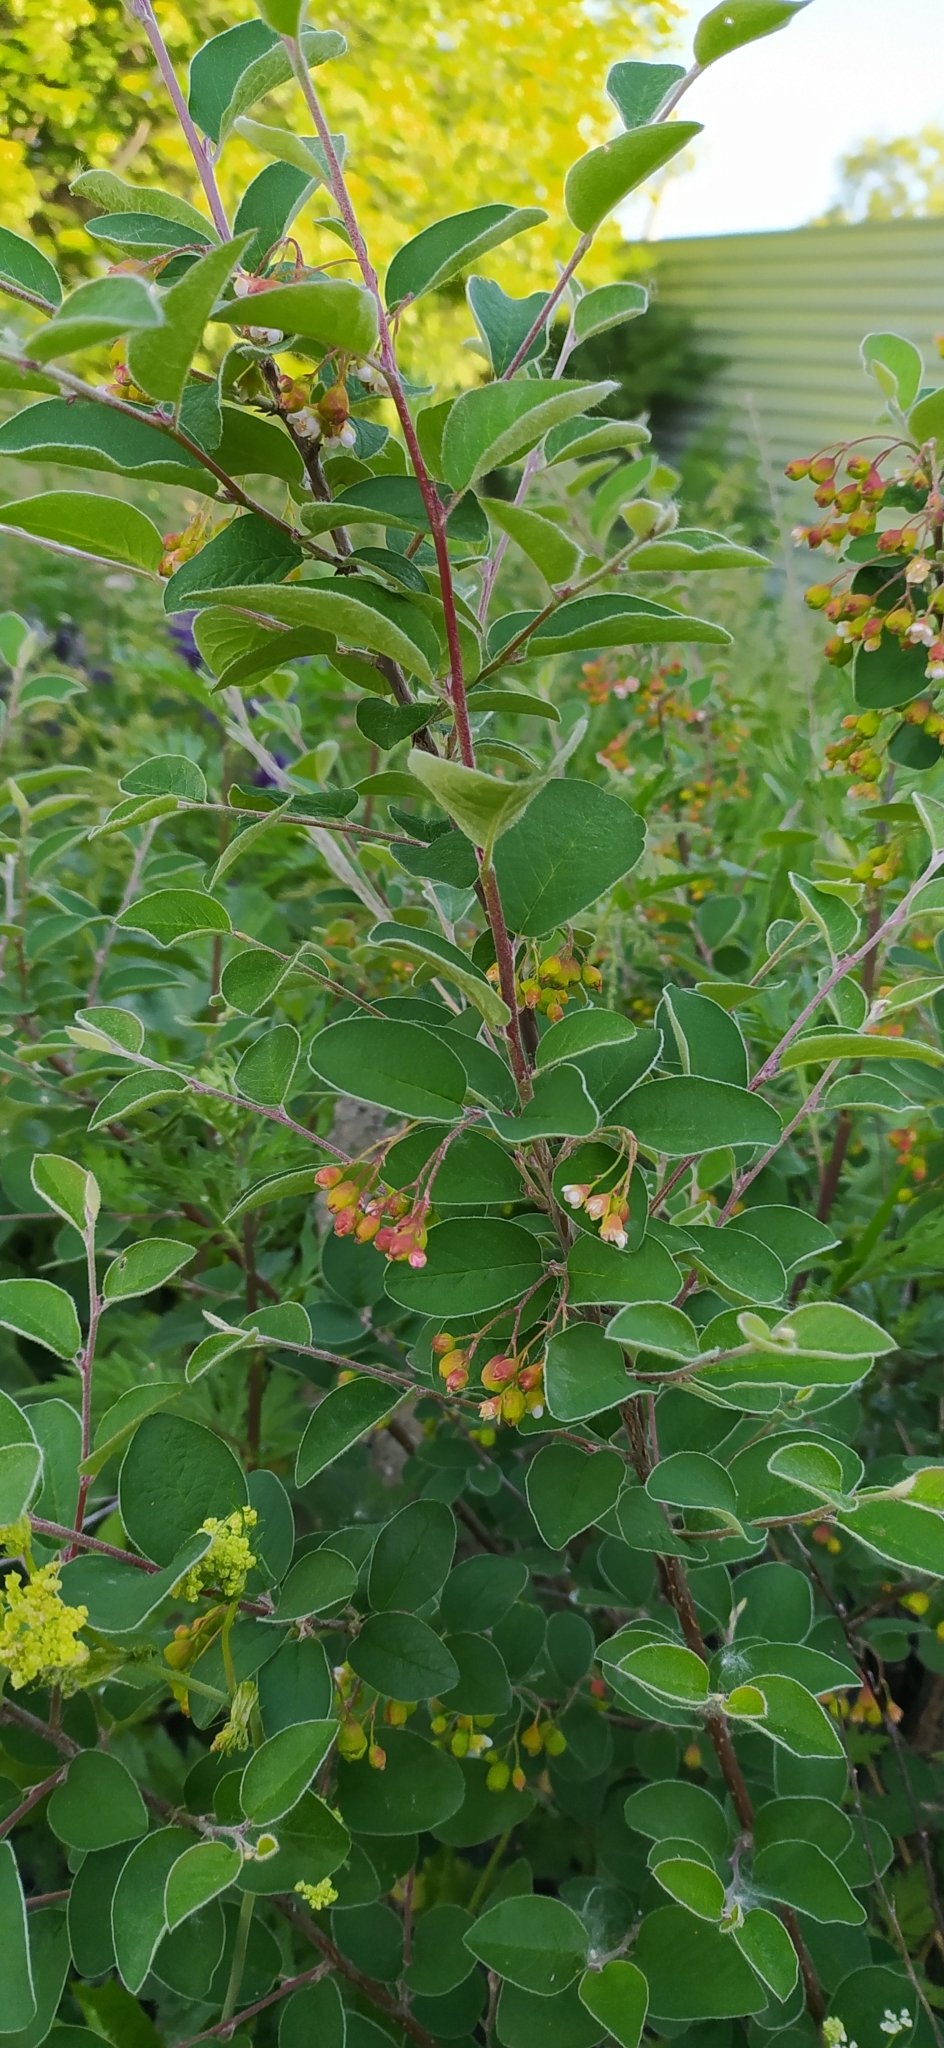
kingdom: Plantae
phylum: Tracheophyta
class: Magnoliopsida
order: Rosales
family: Rosaceae
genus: Cotoneaster
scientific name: Cotoneaster melanocarpus
